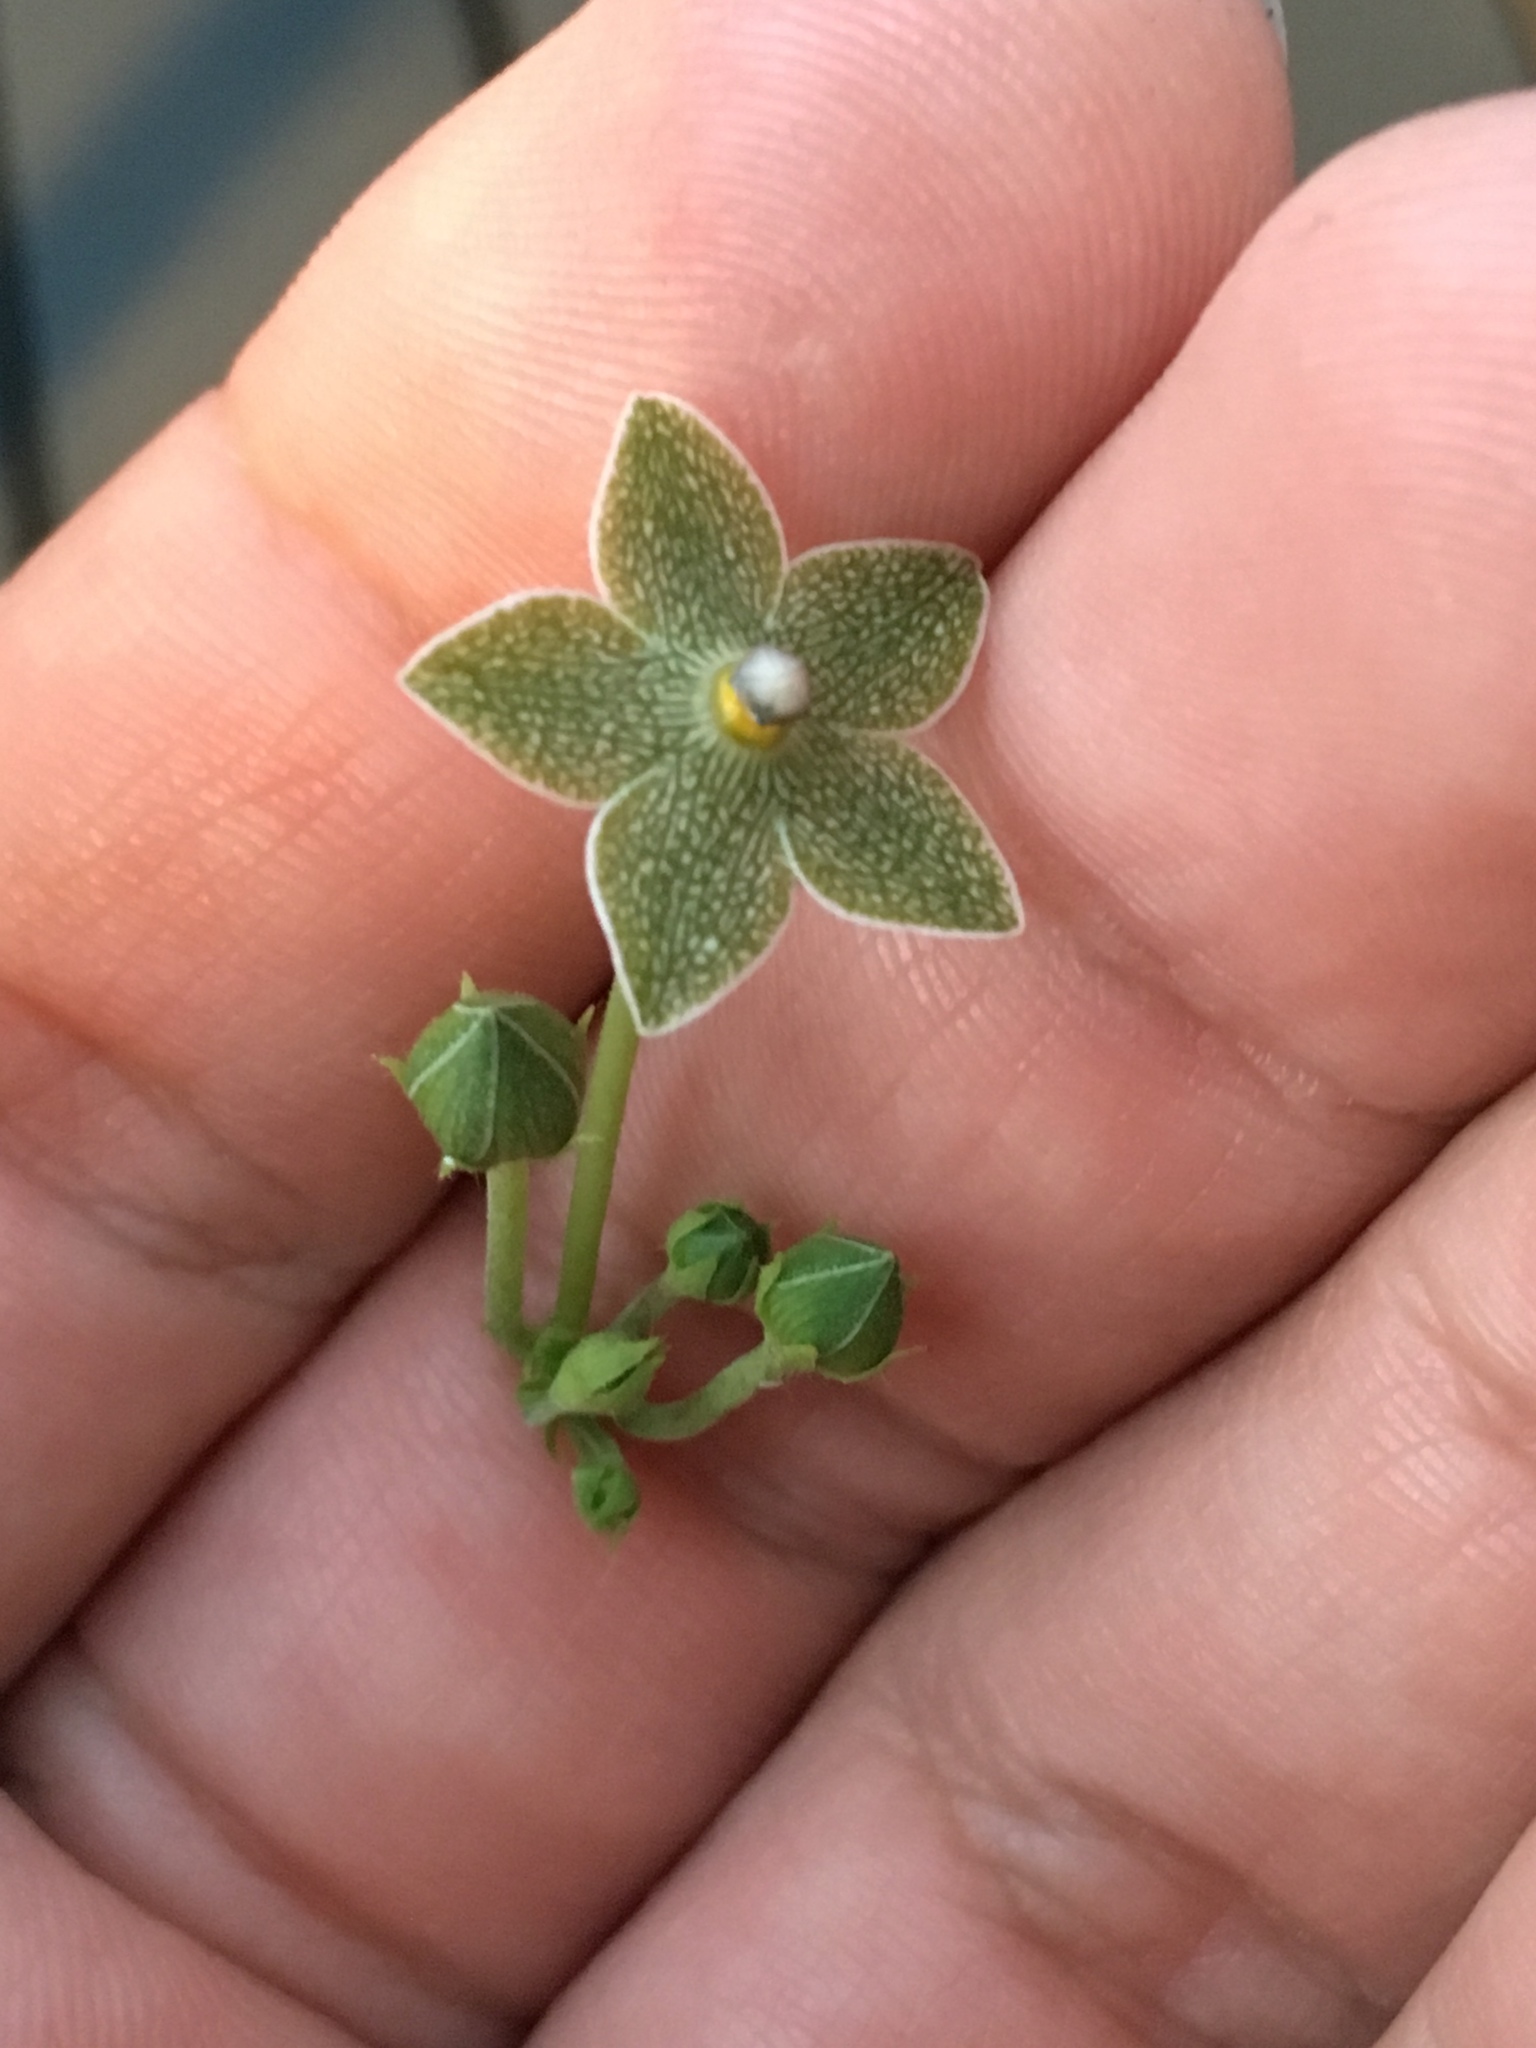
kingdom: Plantae
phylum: Tracheophyta
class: Magnoliopsida
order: Gentianales
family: Apocynaceae
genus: Dictyanthus
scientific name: Dictyanthus reticulatus
